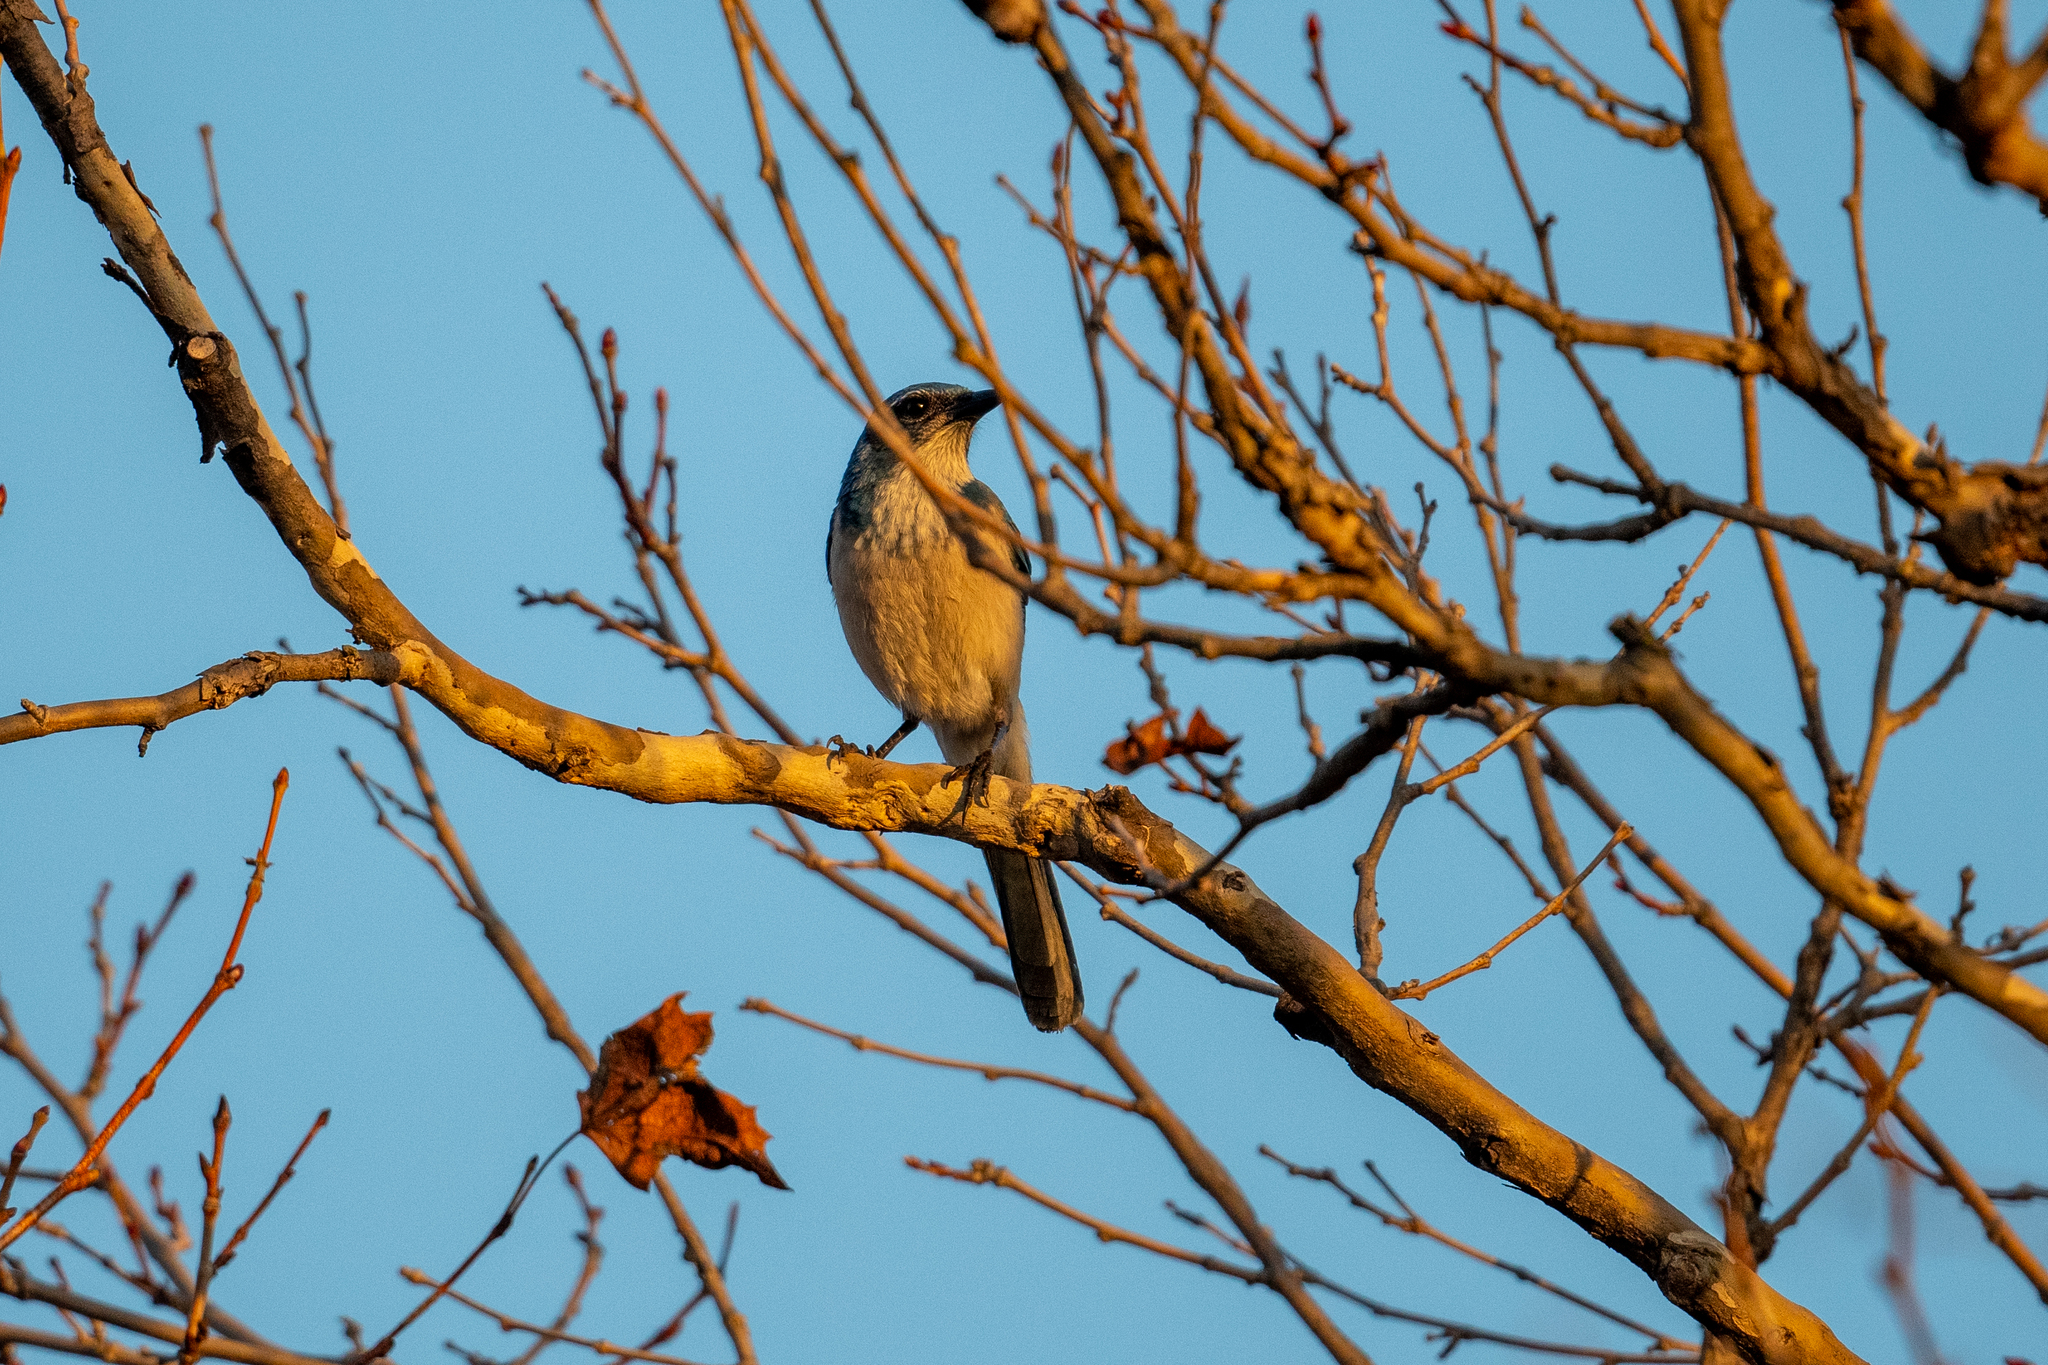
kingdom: Animalia
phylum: Chordata
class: Aves
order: Passeriformes
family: Corvidae
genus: Aphelocoma
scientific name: Aphelocoma californica
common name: California scrub-jay
